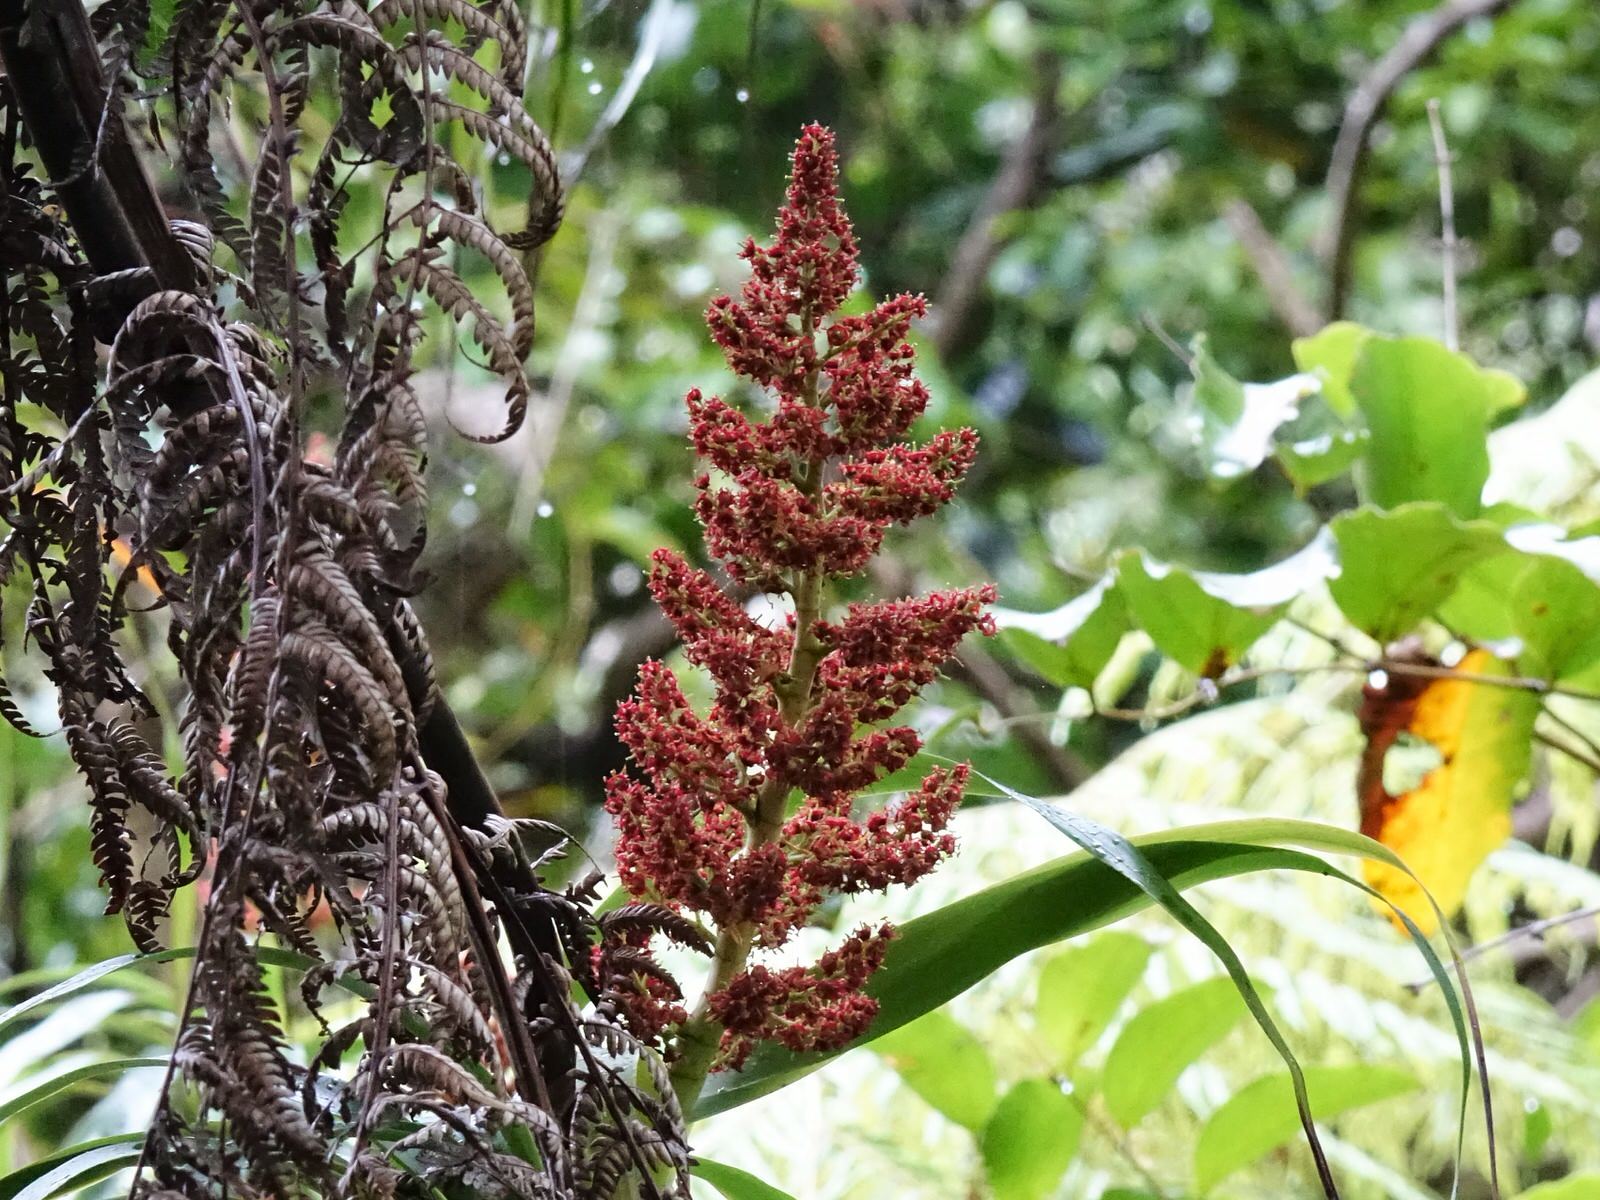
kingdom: Plantae
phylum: Tracheophyta
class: Magnoliopsida
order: Ericales
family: Ericaceae
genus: Dracophyllum
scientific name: Dracophyllum latifolium
